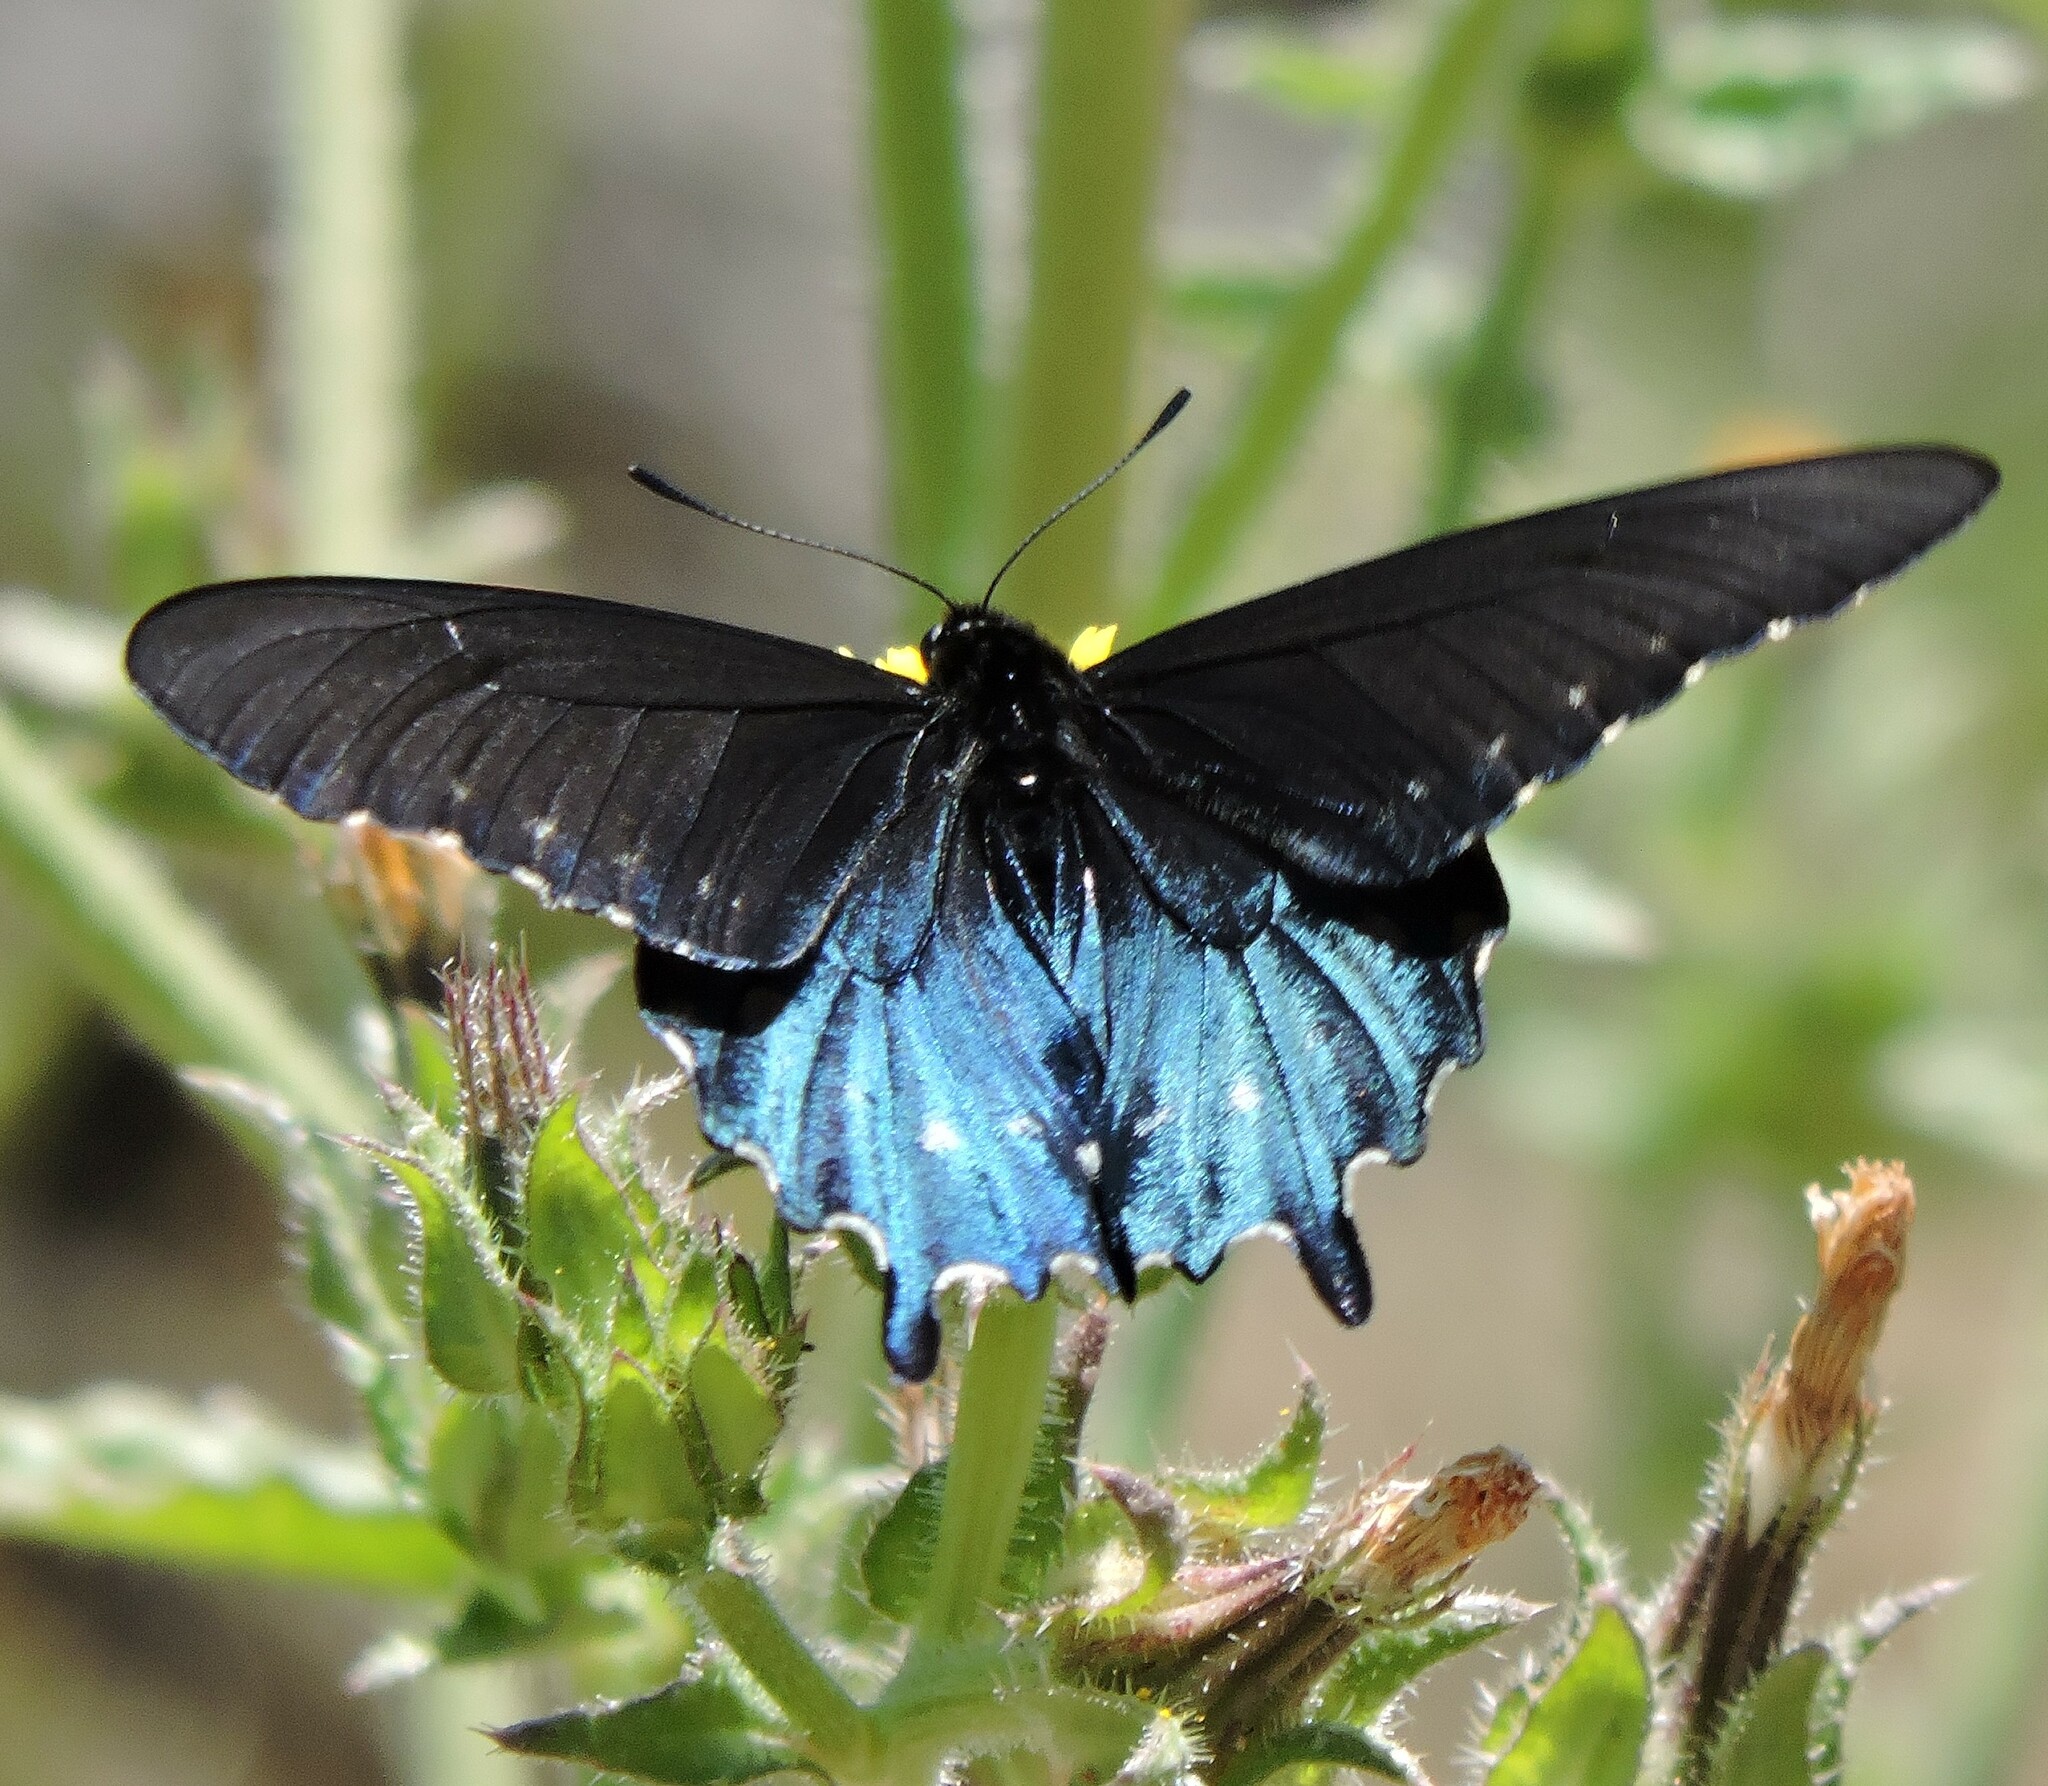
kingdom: Animalia
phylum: Arthropoda
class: Insecta
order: Lepidoptera
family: Papilionidae
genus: Battus
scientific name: Battus philenor
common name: Pipevine swallowtail
